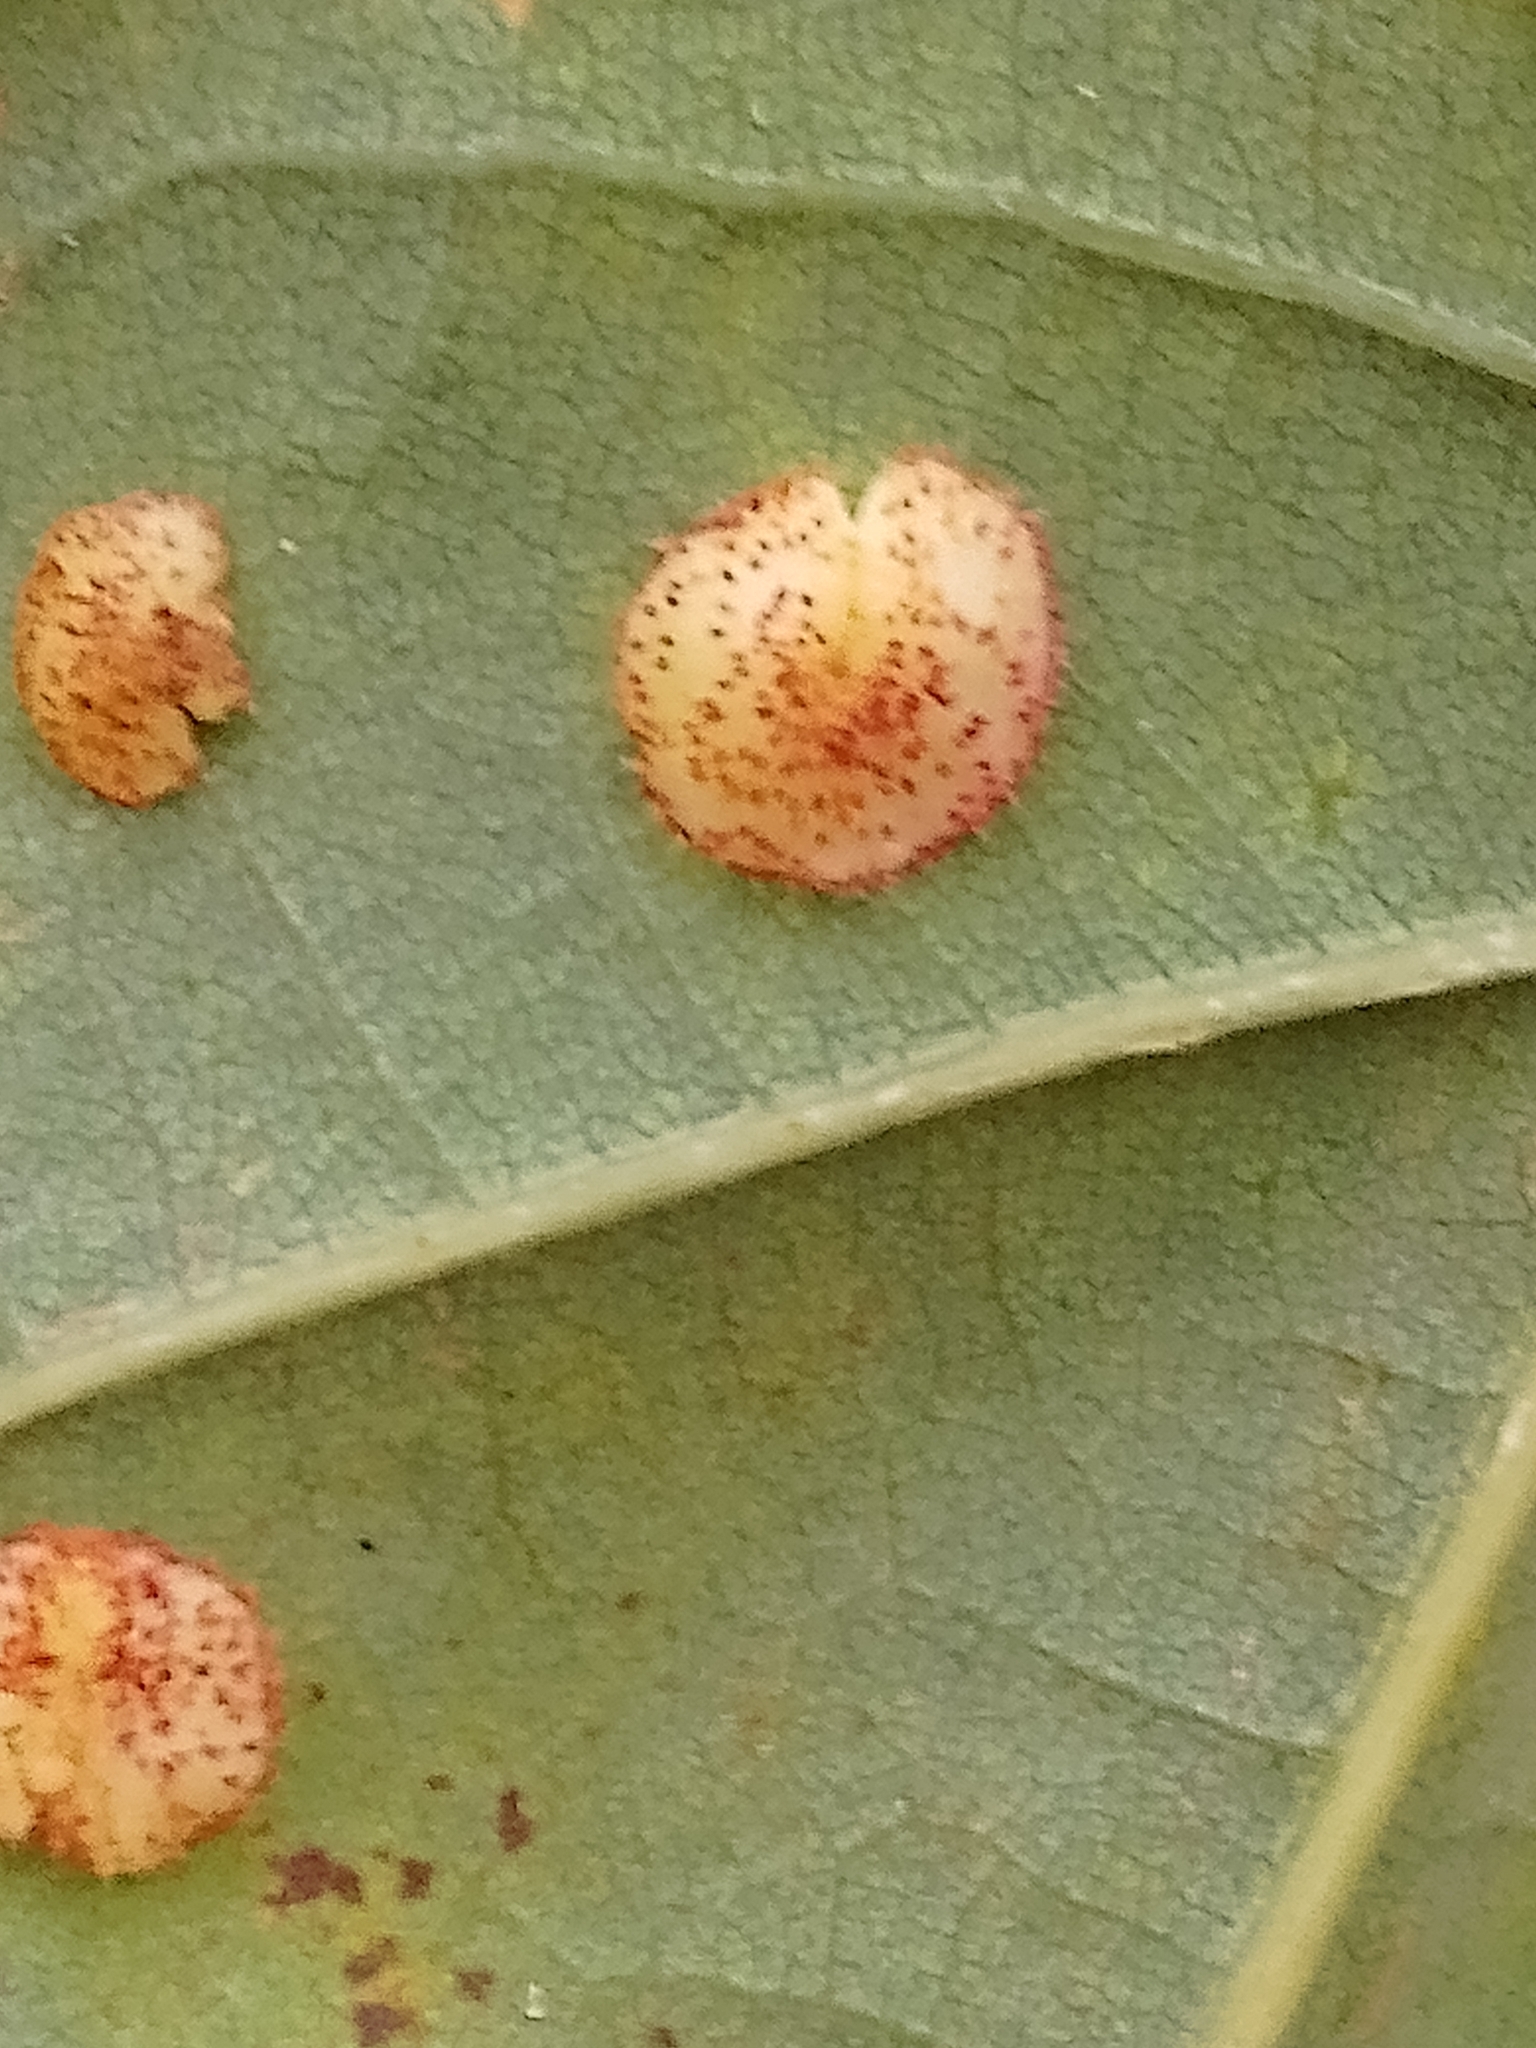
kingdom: Animalia
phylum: Arthropoda
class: Insecta
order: Hymenoptera
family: Cynipidae
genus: Neuroterus
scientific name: Neuroterus quercusbaccarum
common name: Common spangle gall
